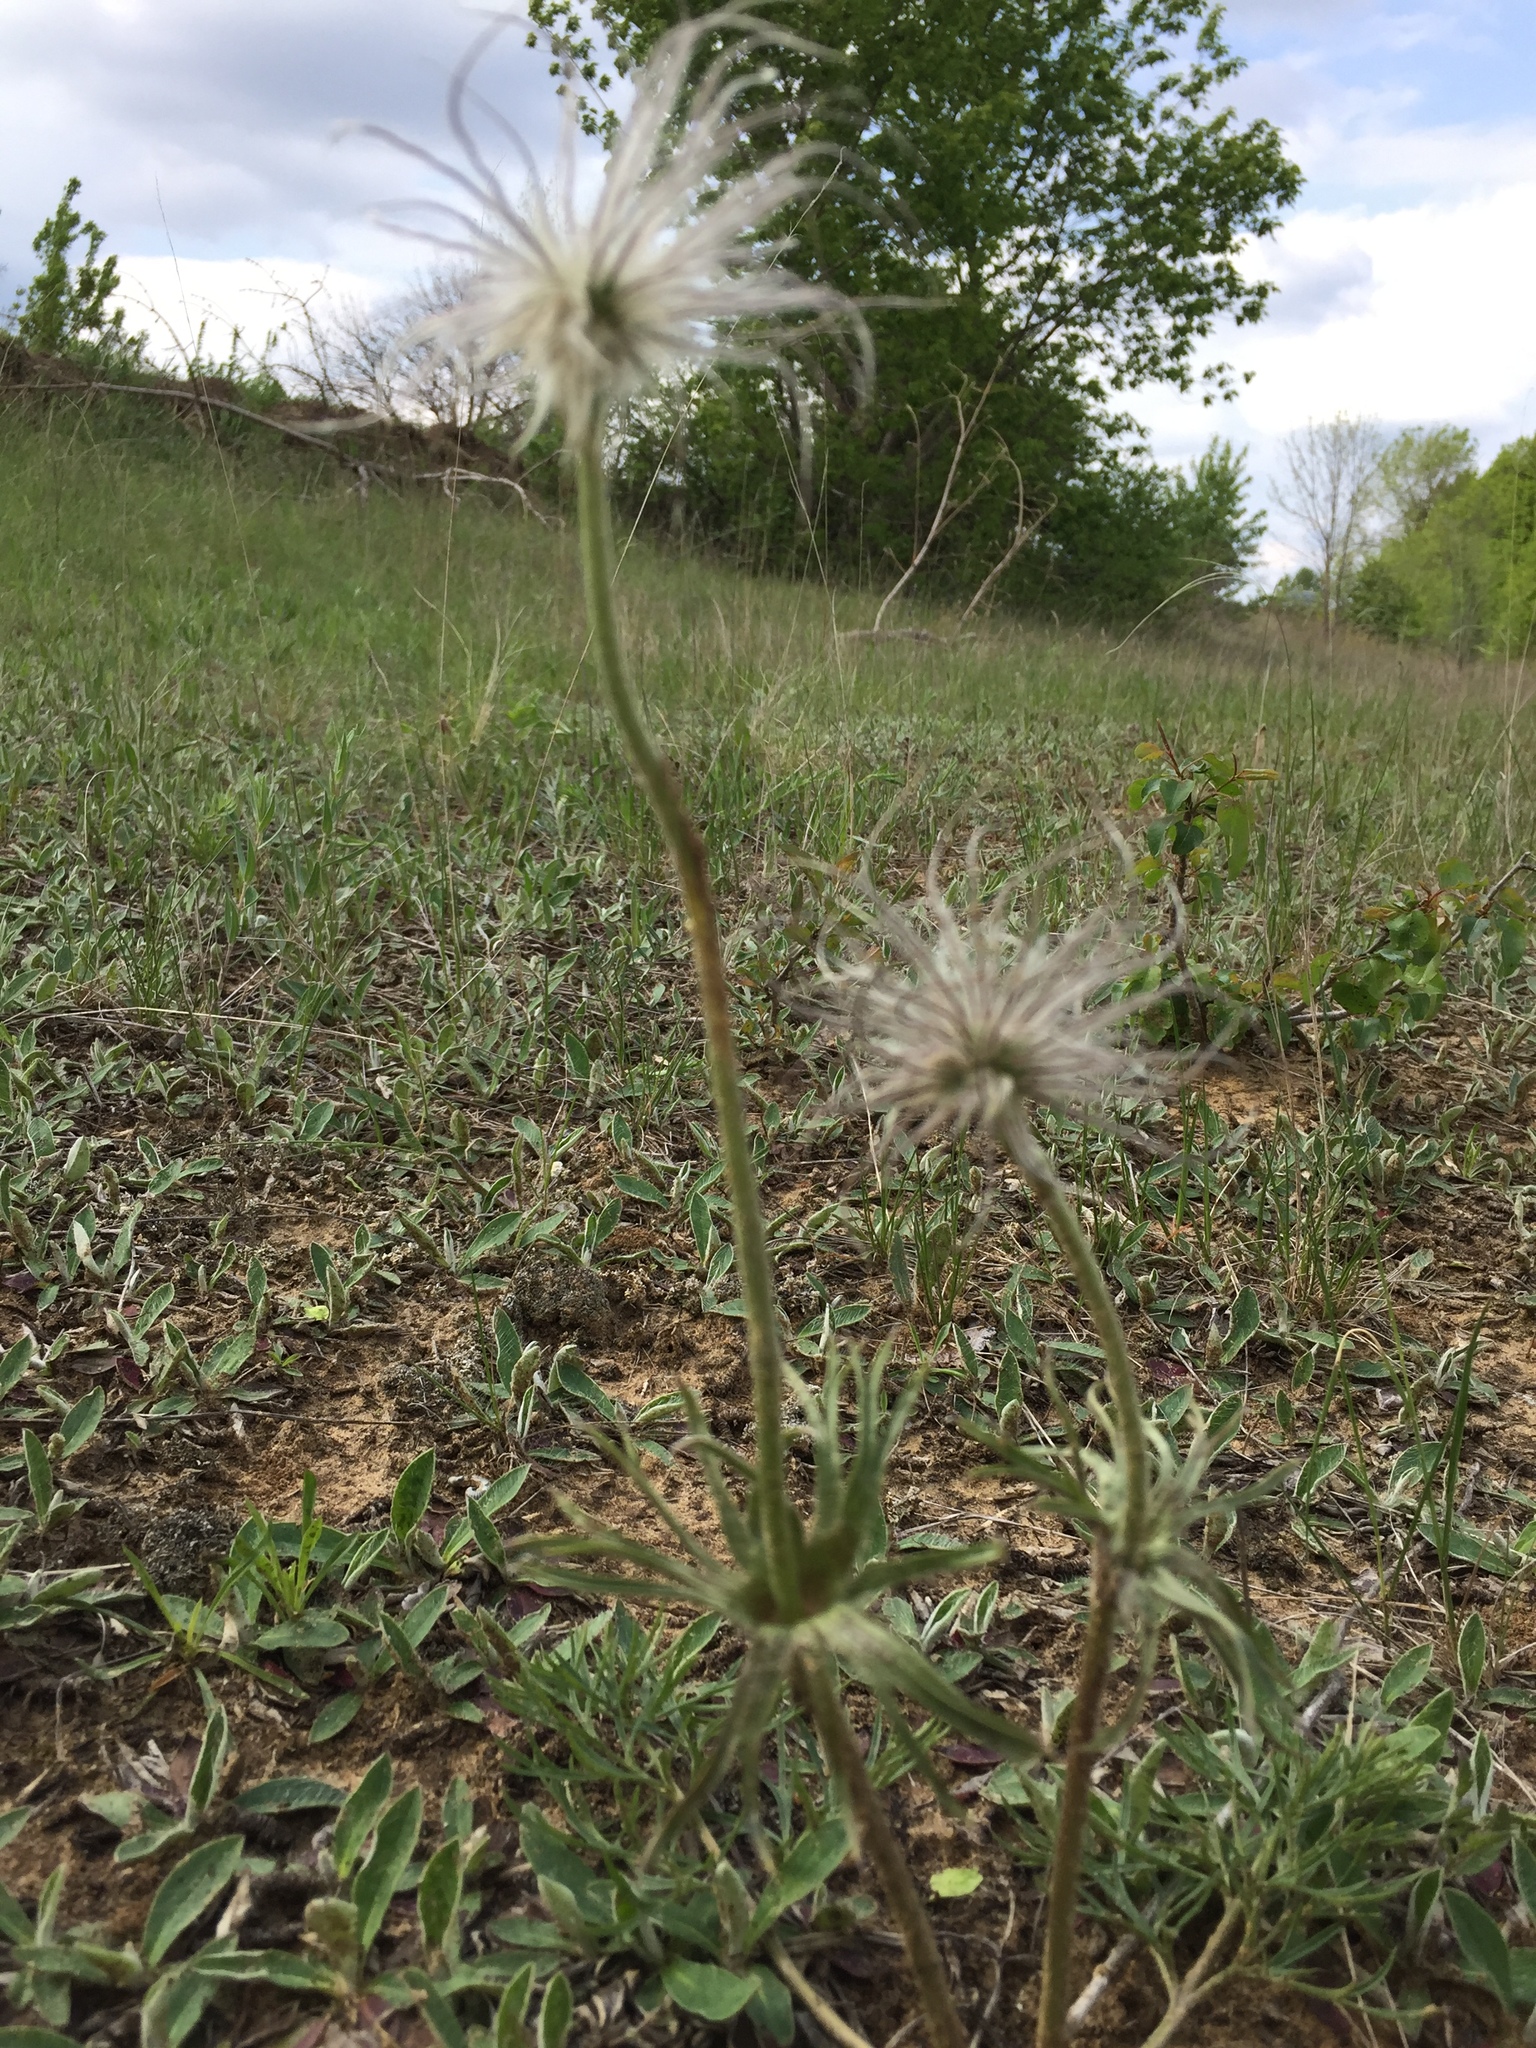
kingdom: Plantae
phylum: Tracheophyta
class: Magnoliopsida
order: Ranunculales
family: Ranunculaceae
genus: Pulsatilla
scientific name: Pulsatilla pratensis
